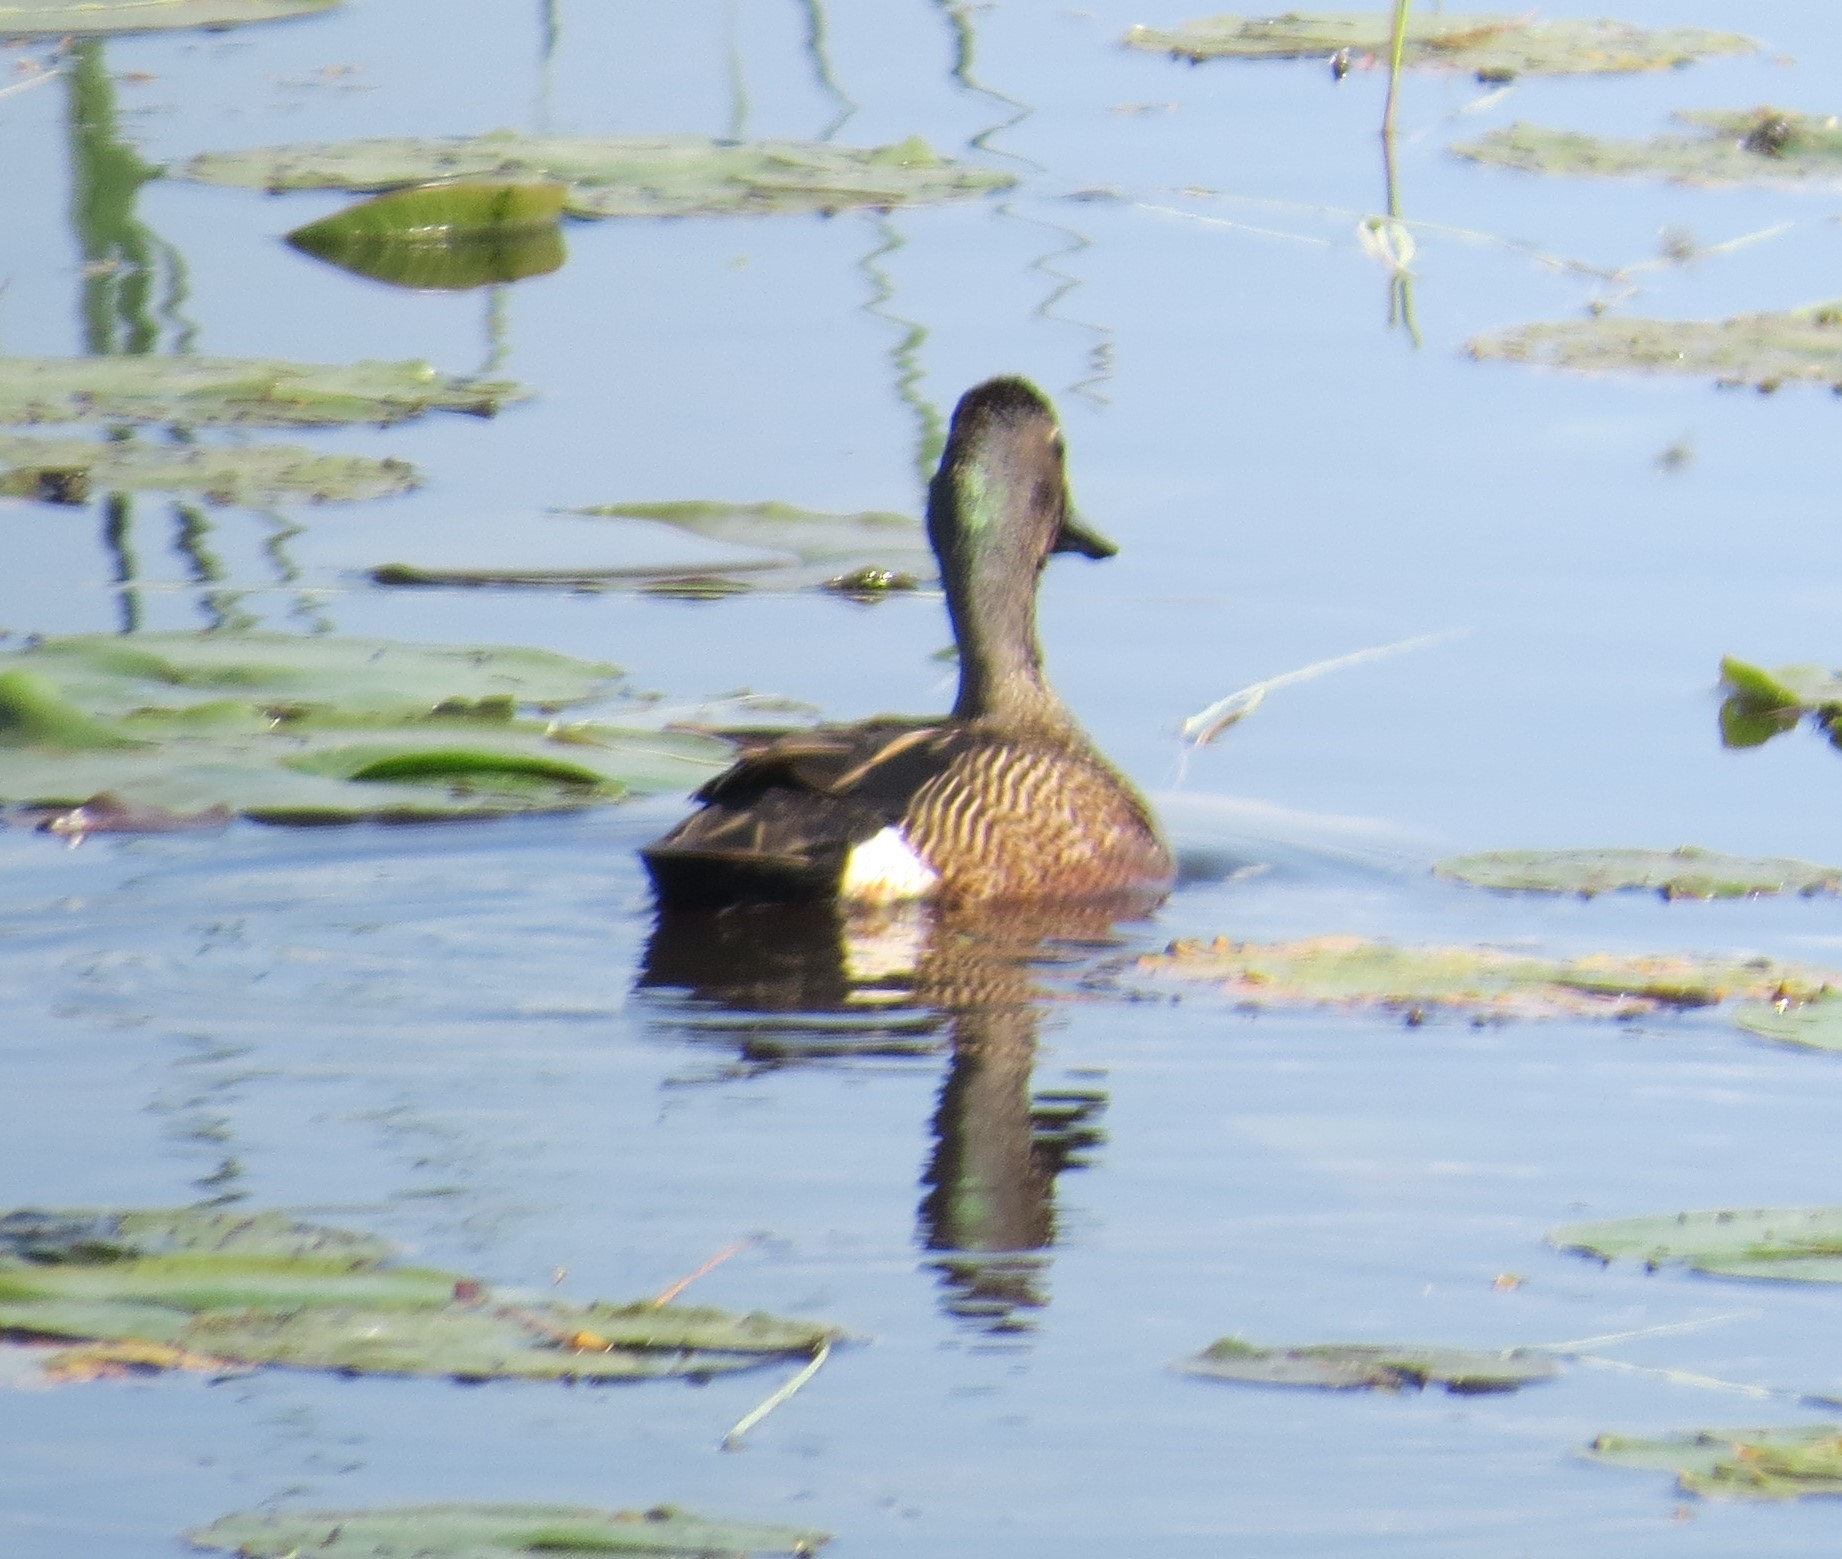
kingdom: Animalia
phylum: Chordata
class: Aves
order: Anseriformes
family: Anatidae
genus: Spatula
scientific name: Spatula discors
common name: Blue-winged teal
